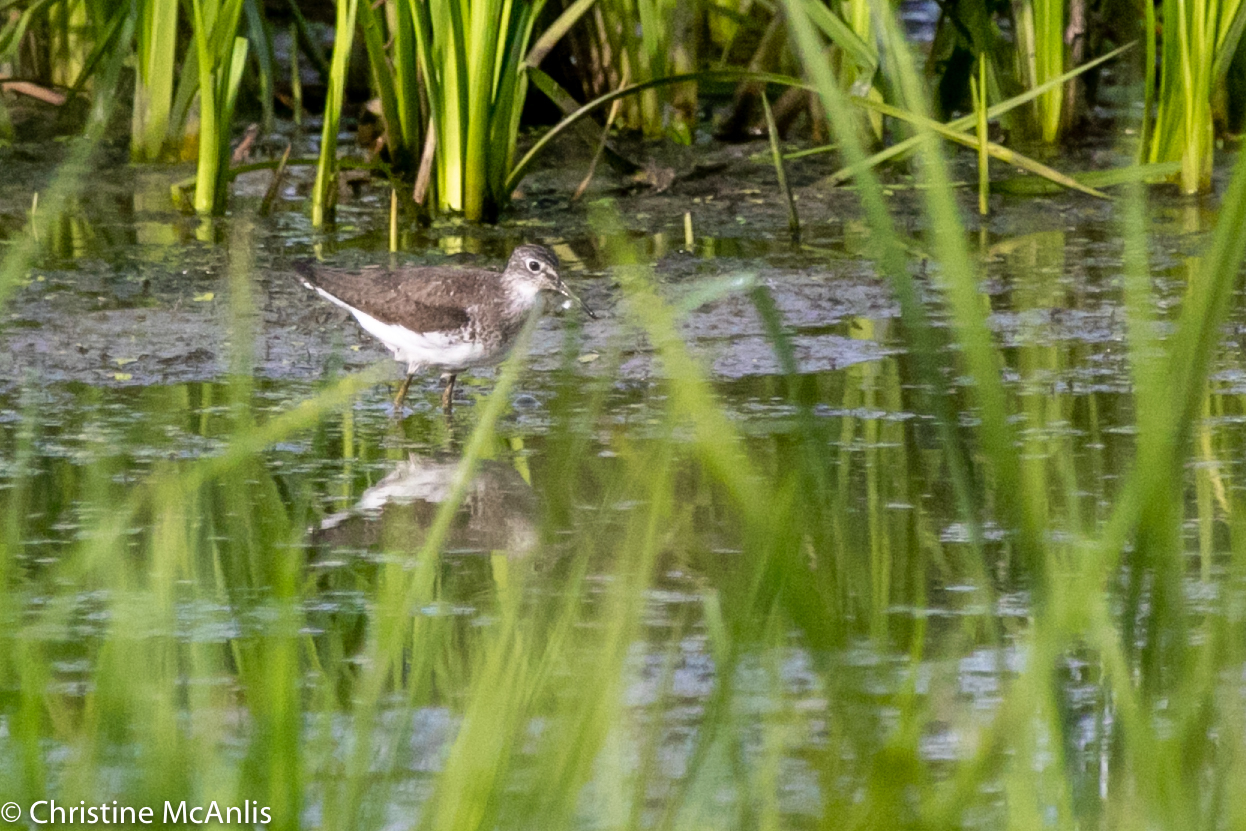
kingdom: Animalia
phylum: Chordata
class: Aves
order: Charadriiformes
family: Scolopacidae
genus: Tringa
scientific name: Tringa solitaria
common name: Solitary sandpiper
